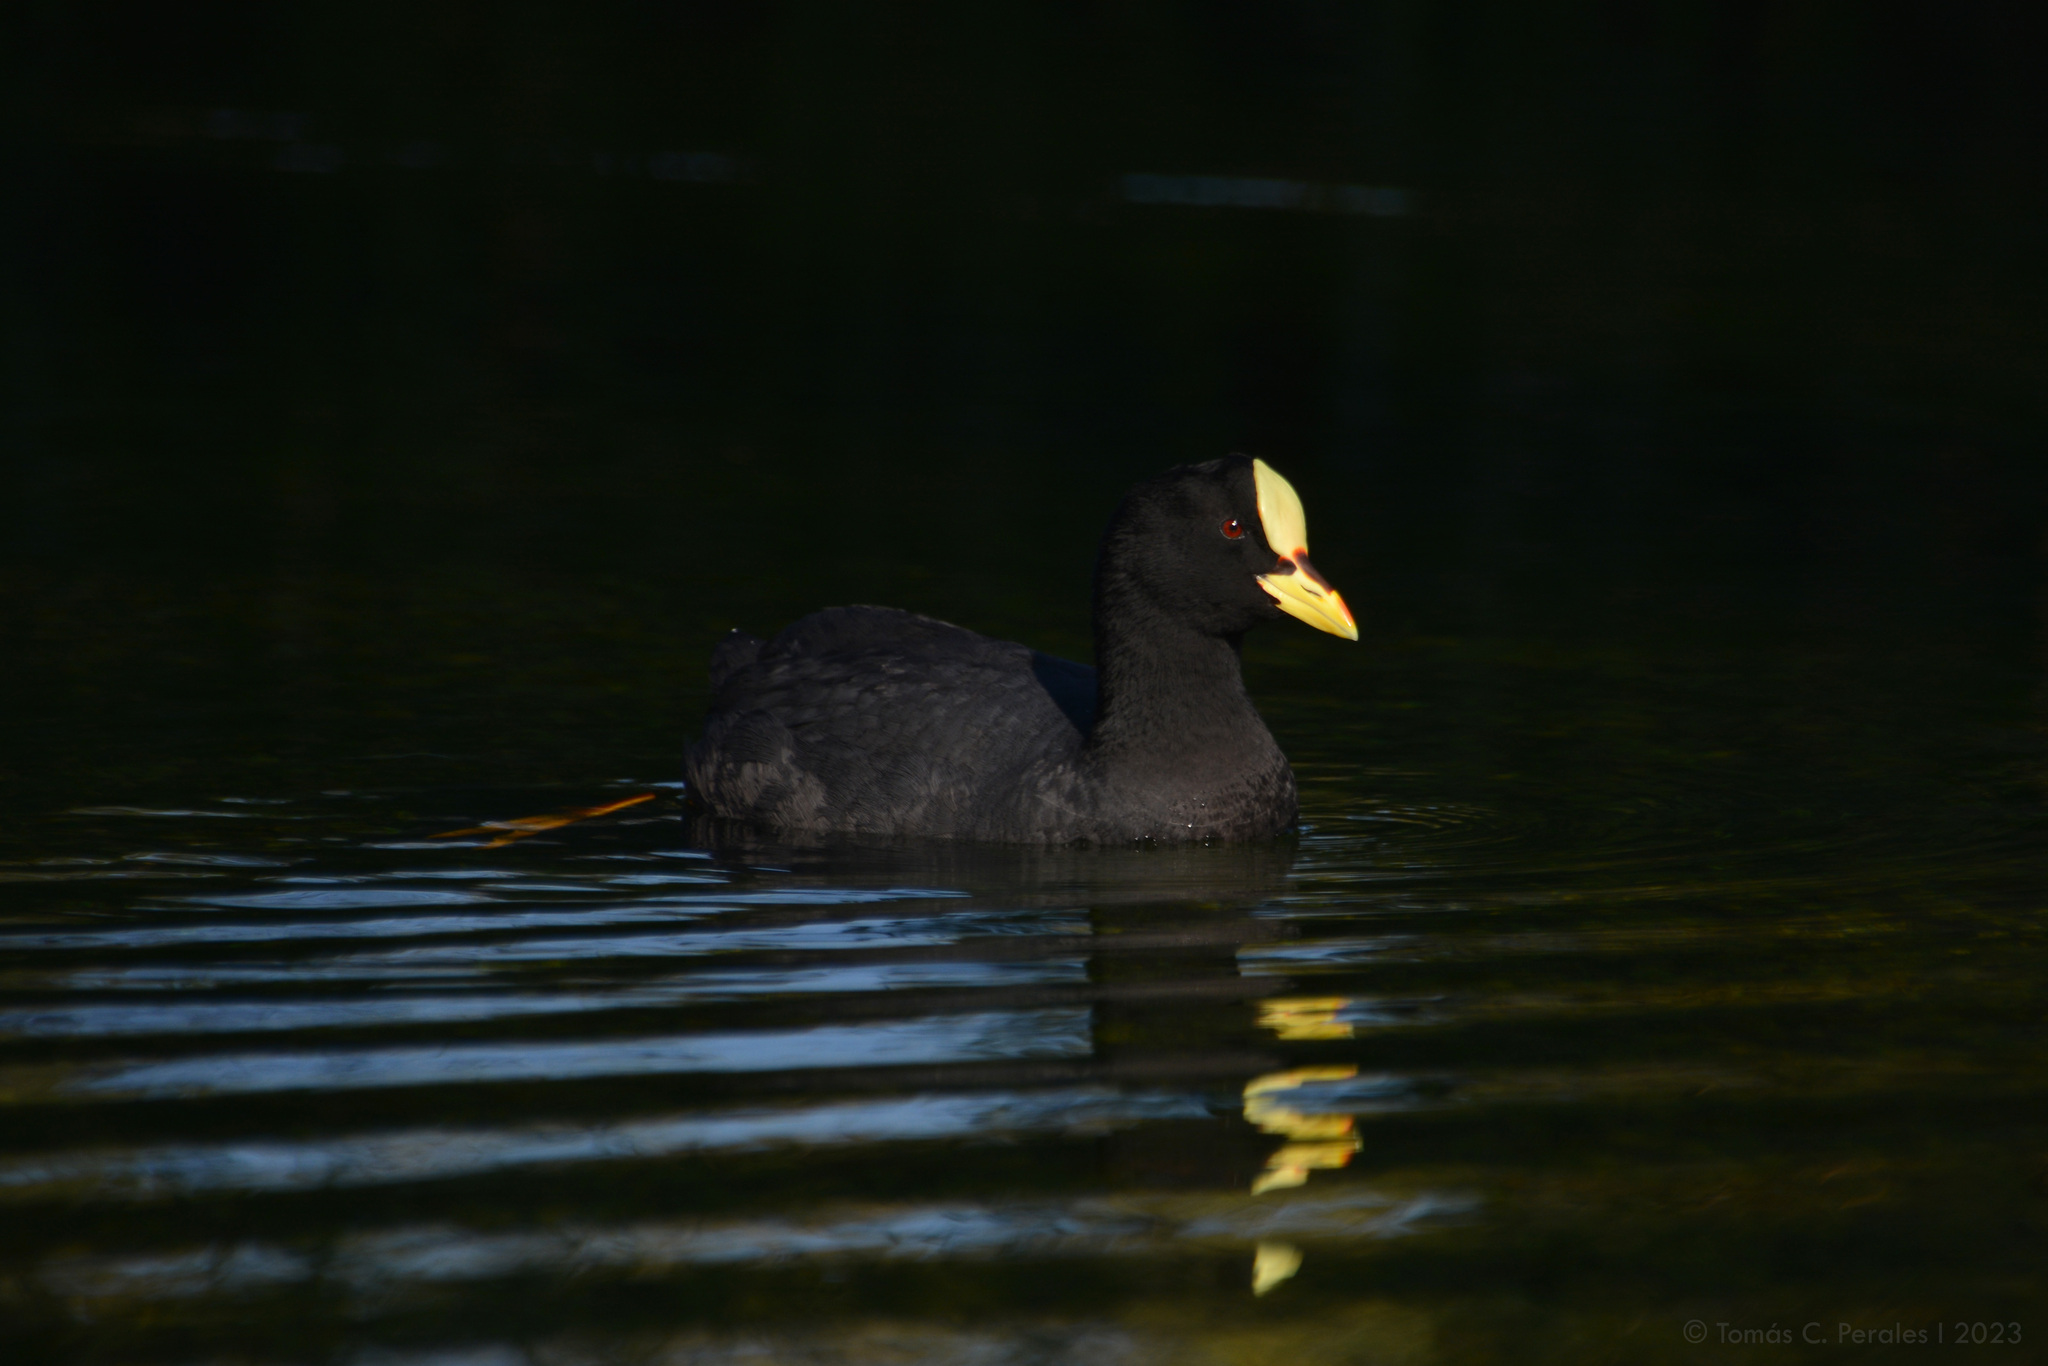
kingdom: Animalia
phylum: Chordata
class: Aves
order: Gruiformes
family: Rallidae
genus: Fulica
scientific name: Fulica armillata
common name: Red-gartered coot
